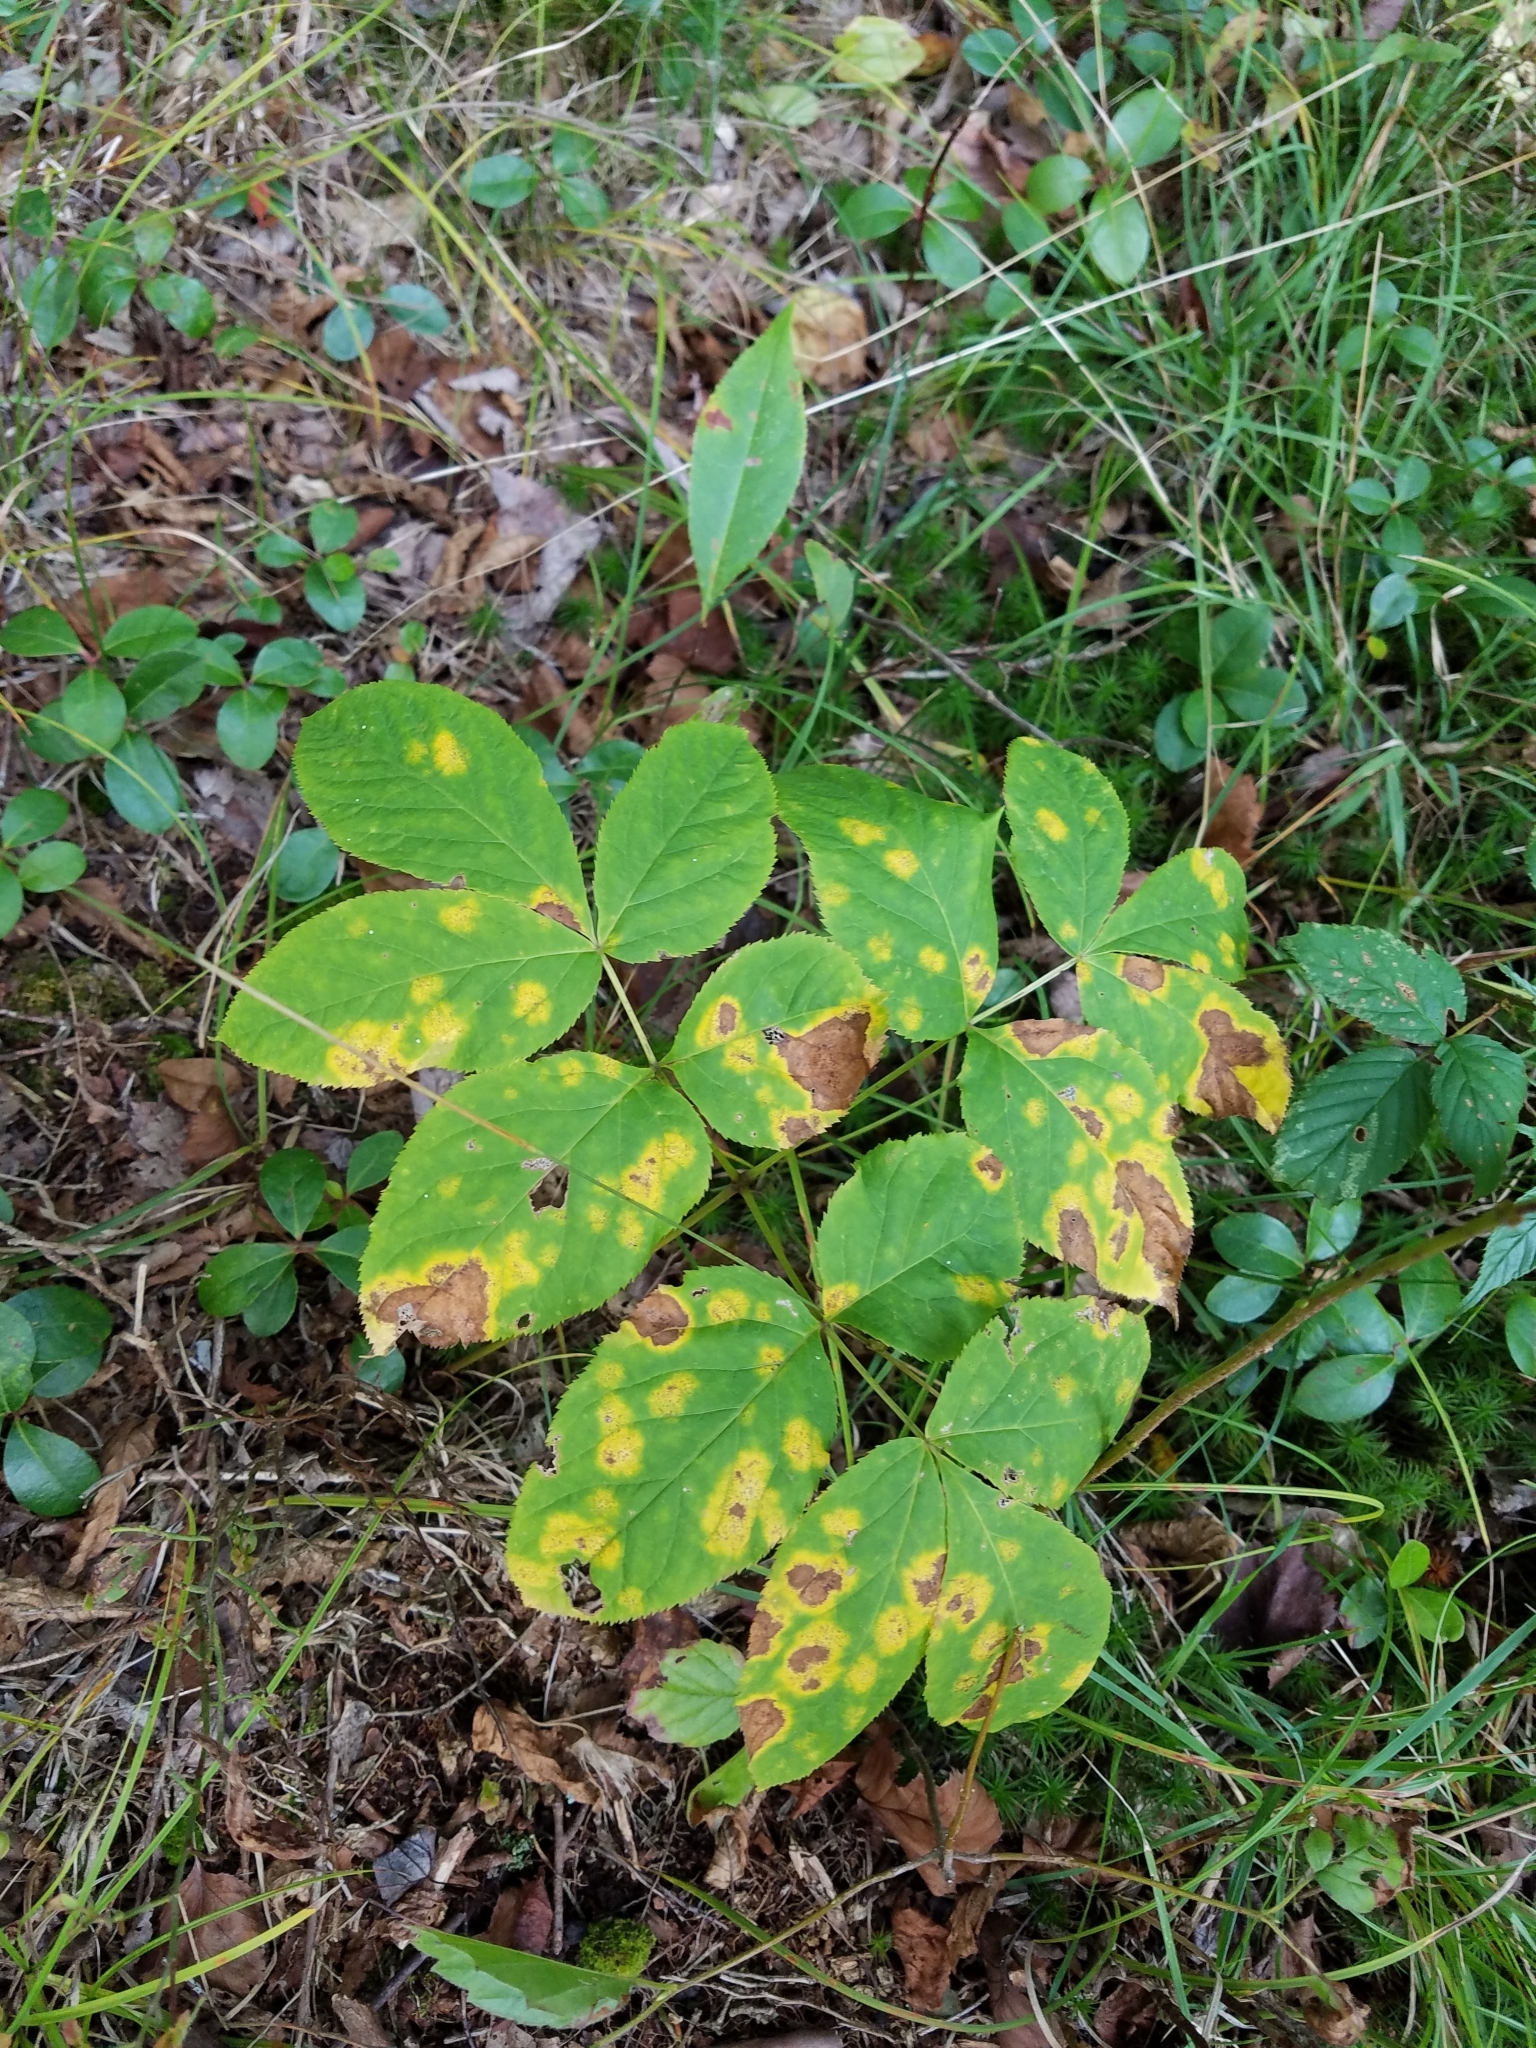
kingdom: Plantae
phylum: Tracheophyta
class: Magnoliopsida
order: Apiales
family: Araliaceae
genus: Aralia
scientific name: Aralia nudicaulis
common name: Wild sarsaparilla
